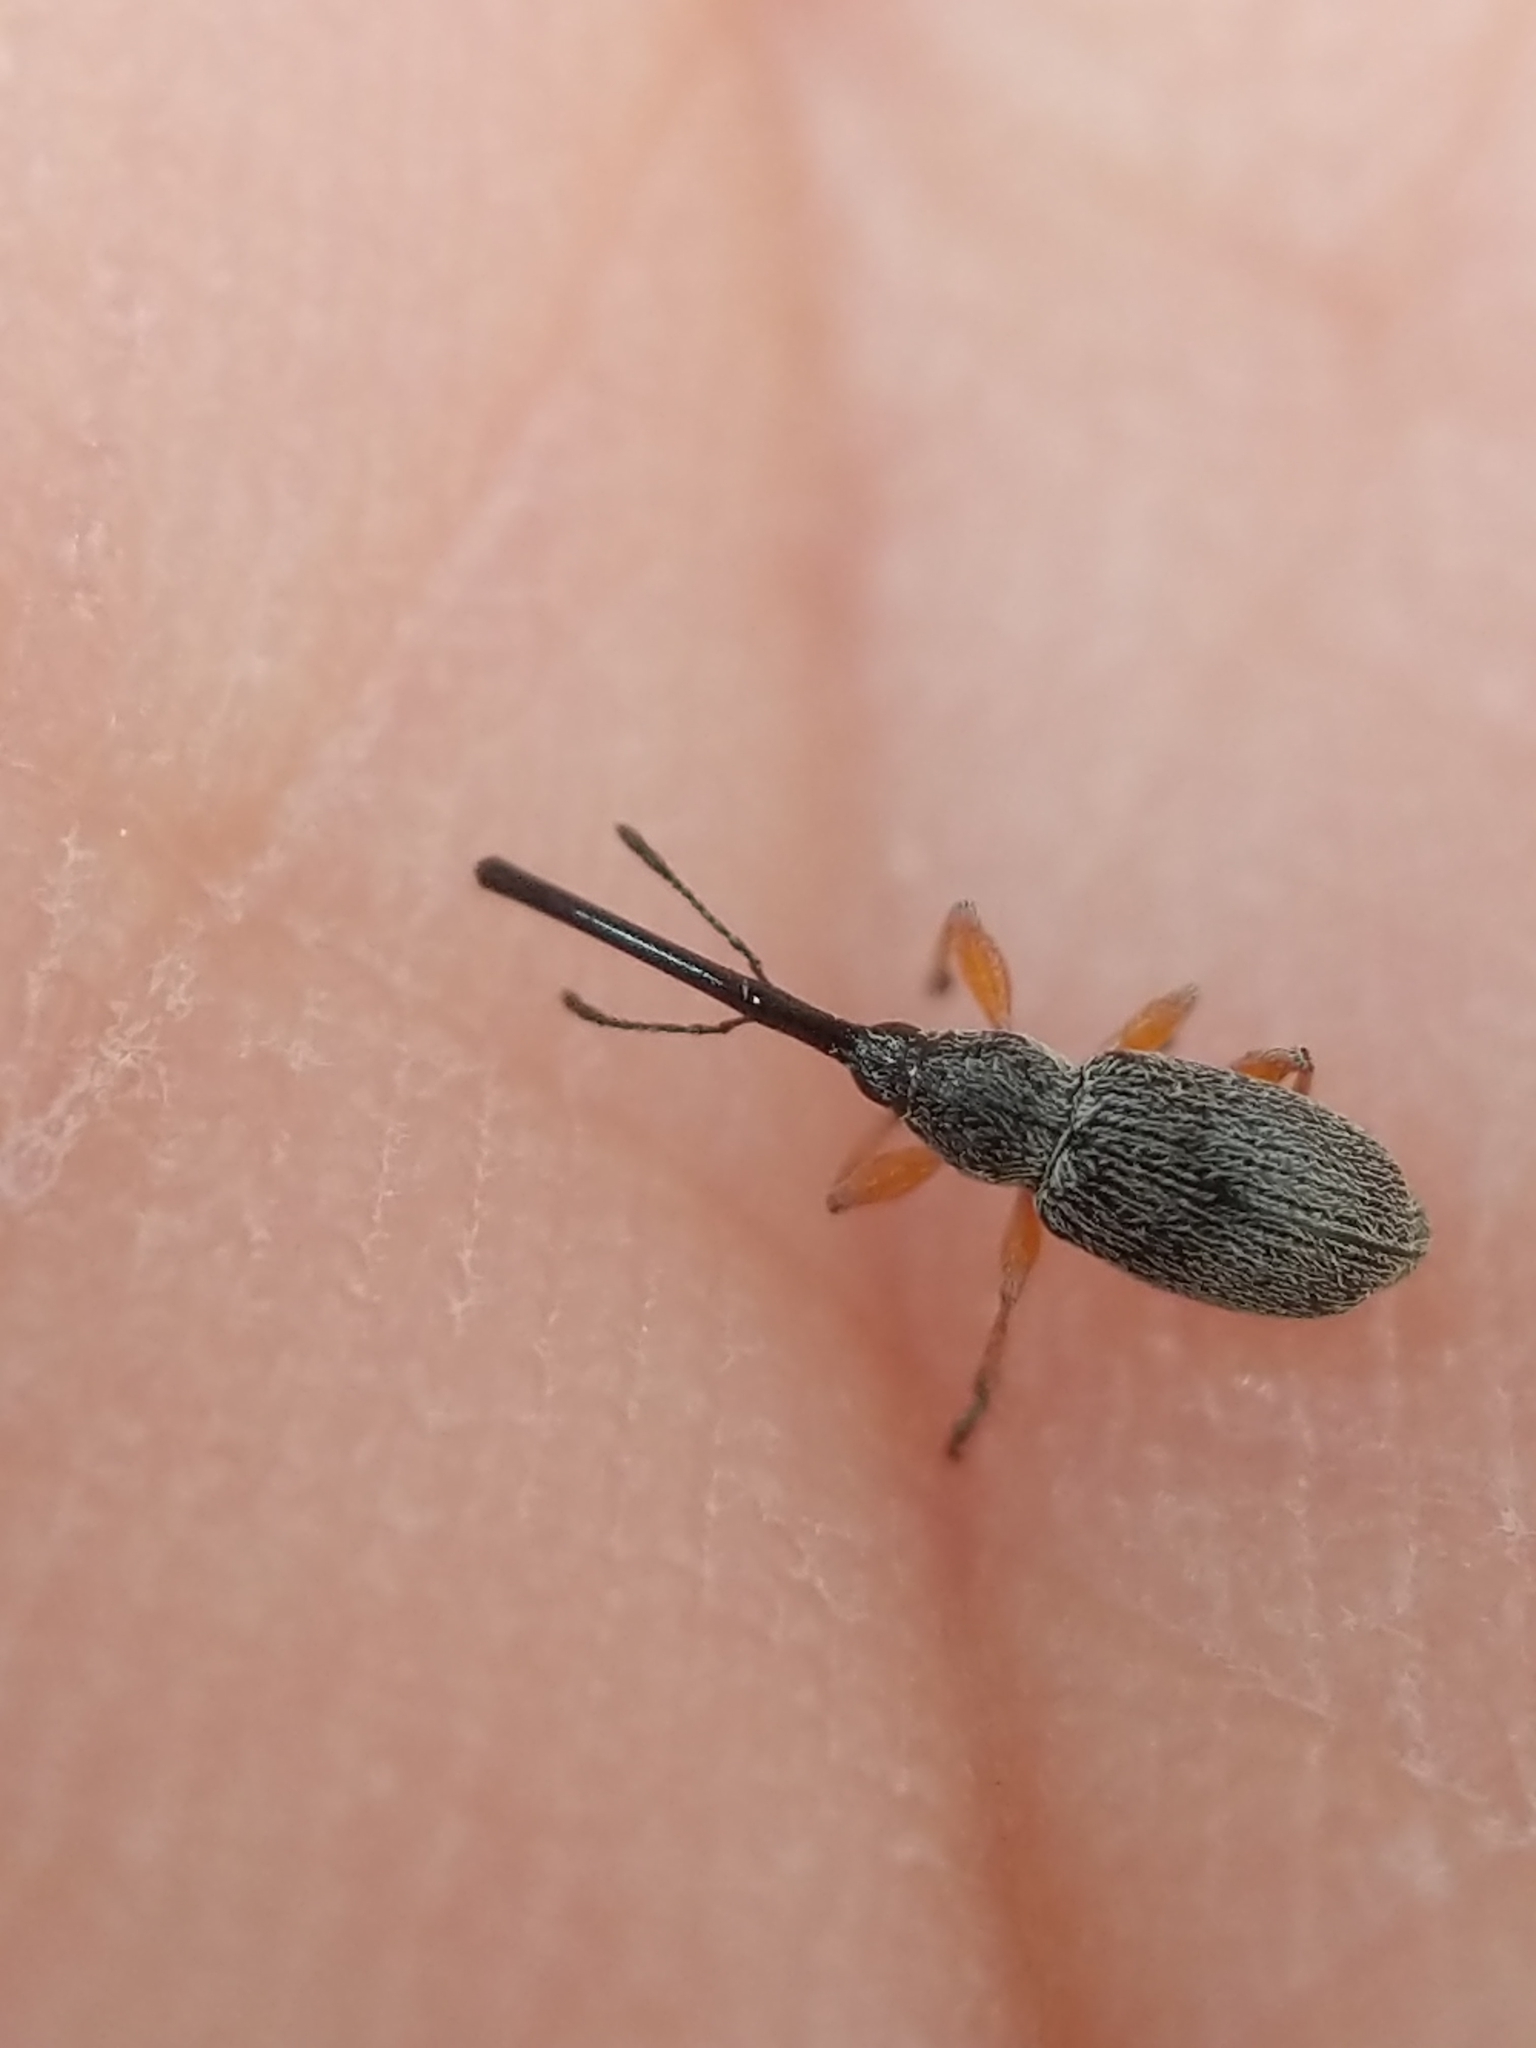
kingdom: Animalia
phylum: Arthropoda
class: Insecta
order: Coleoptera
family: Brentidae
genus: Rhopalapion
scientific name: Rhopalapion longirostre
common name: Hollyhock weevil
